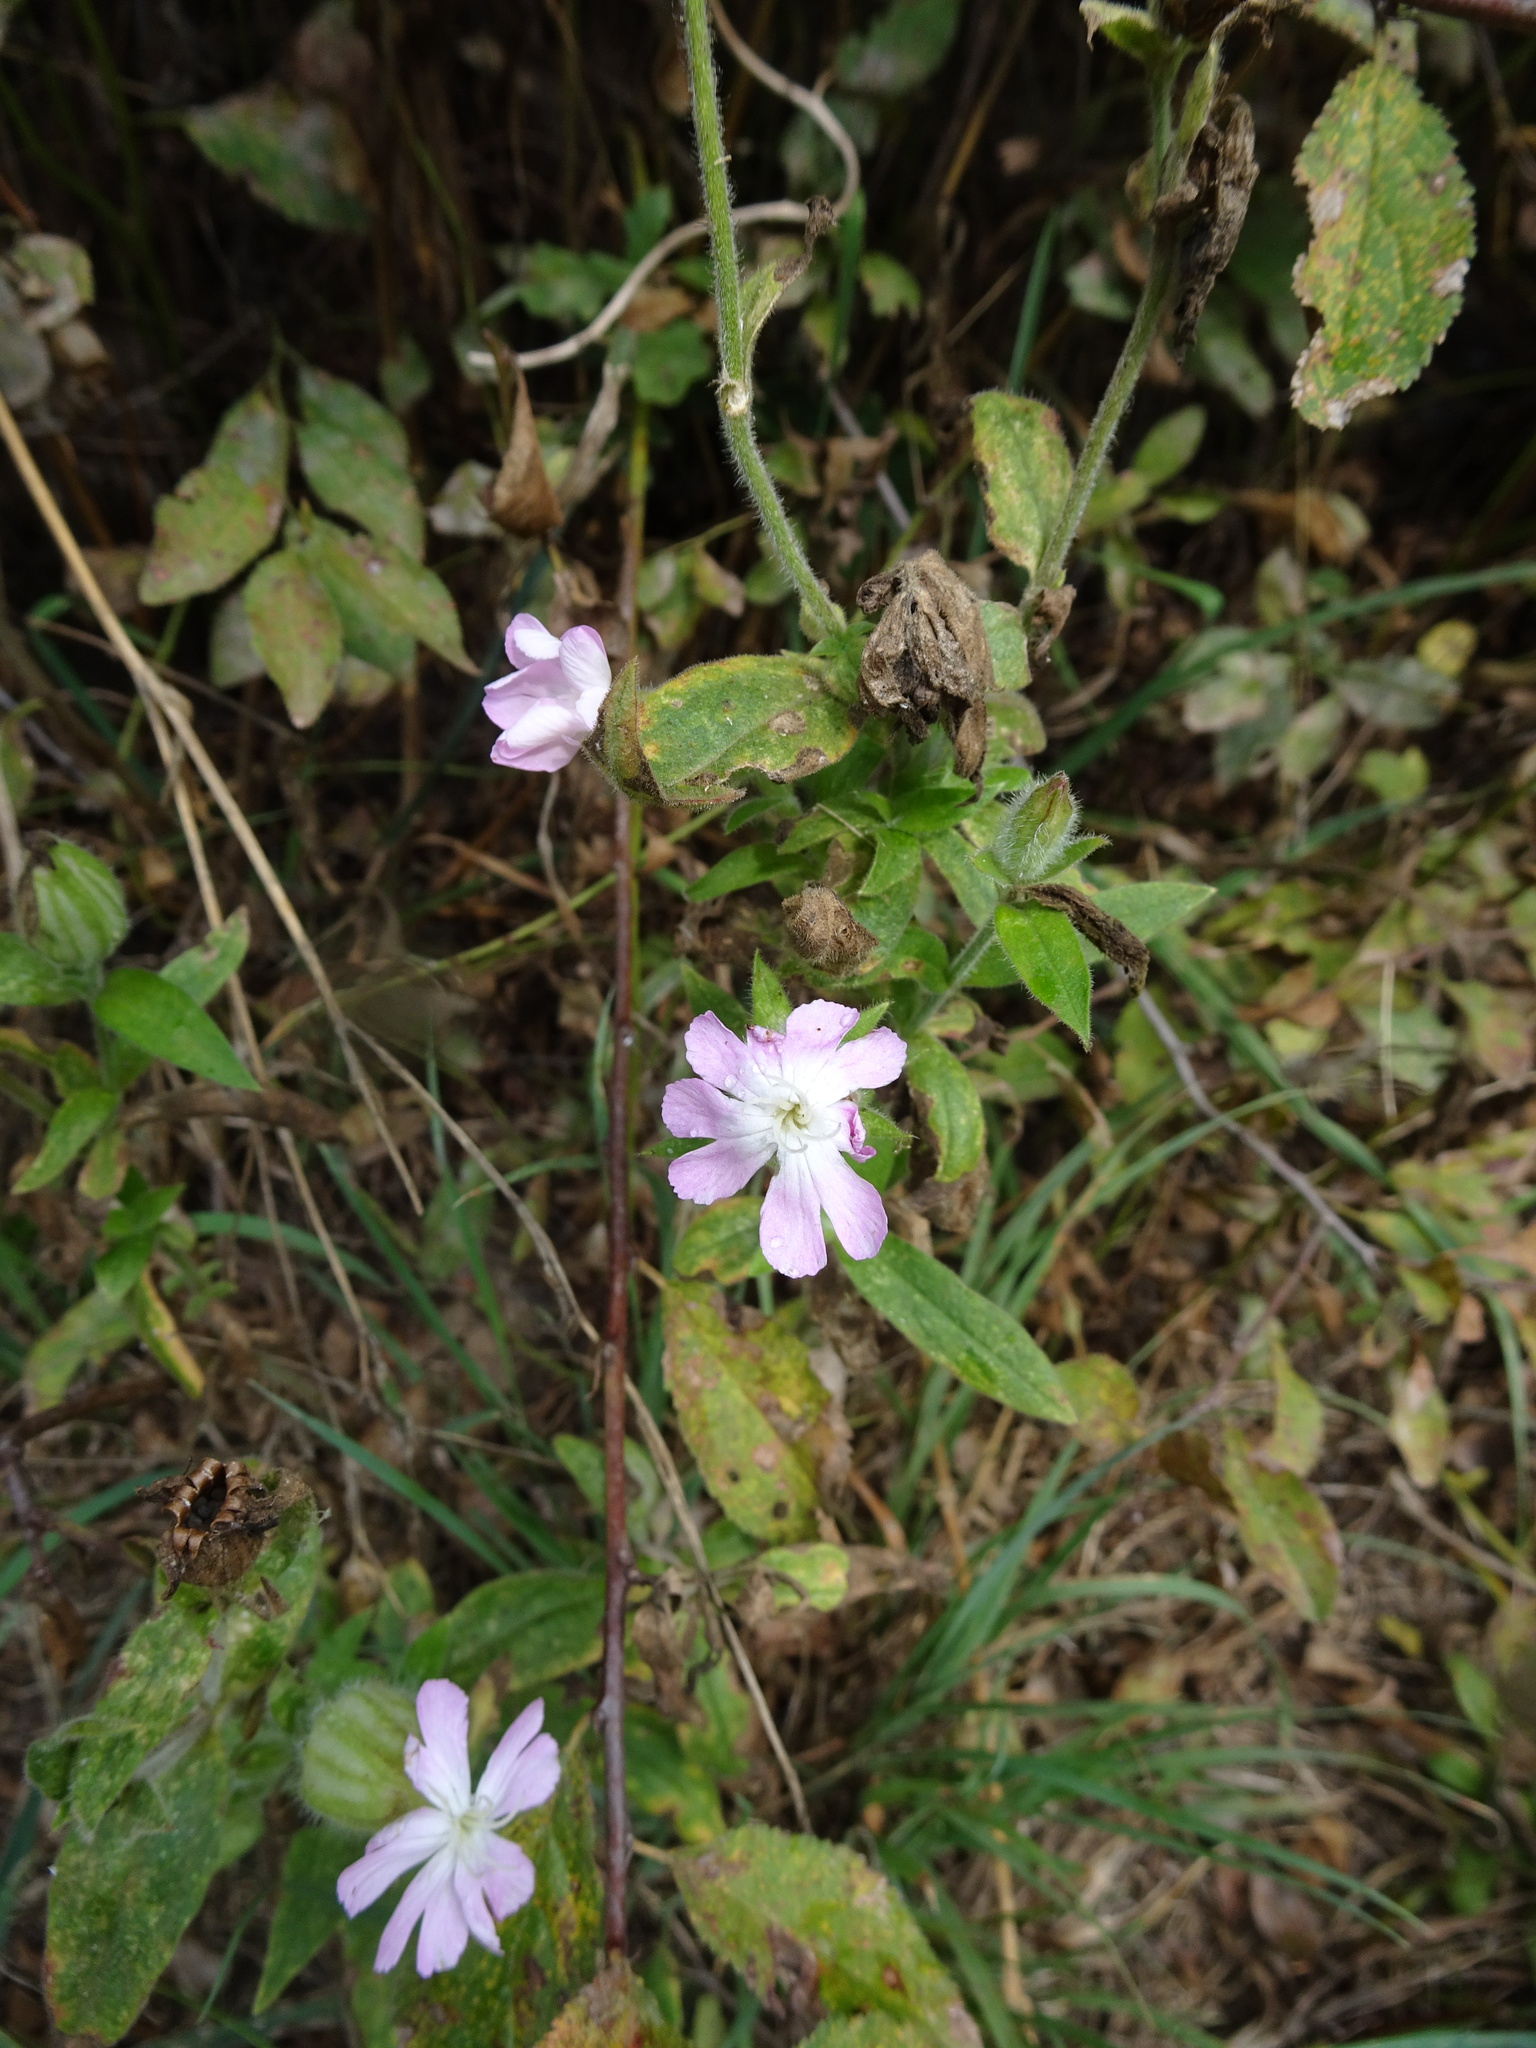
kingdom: Plantae
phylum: Tracheophyta
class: Magnoliopsida
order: Caryophyllales
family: Caryophyllaceae
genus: Silene
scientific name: Silene dioica
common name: Red campion
